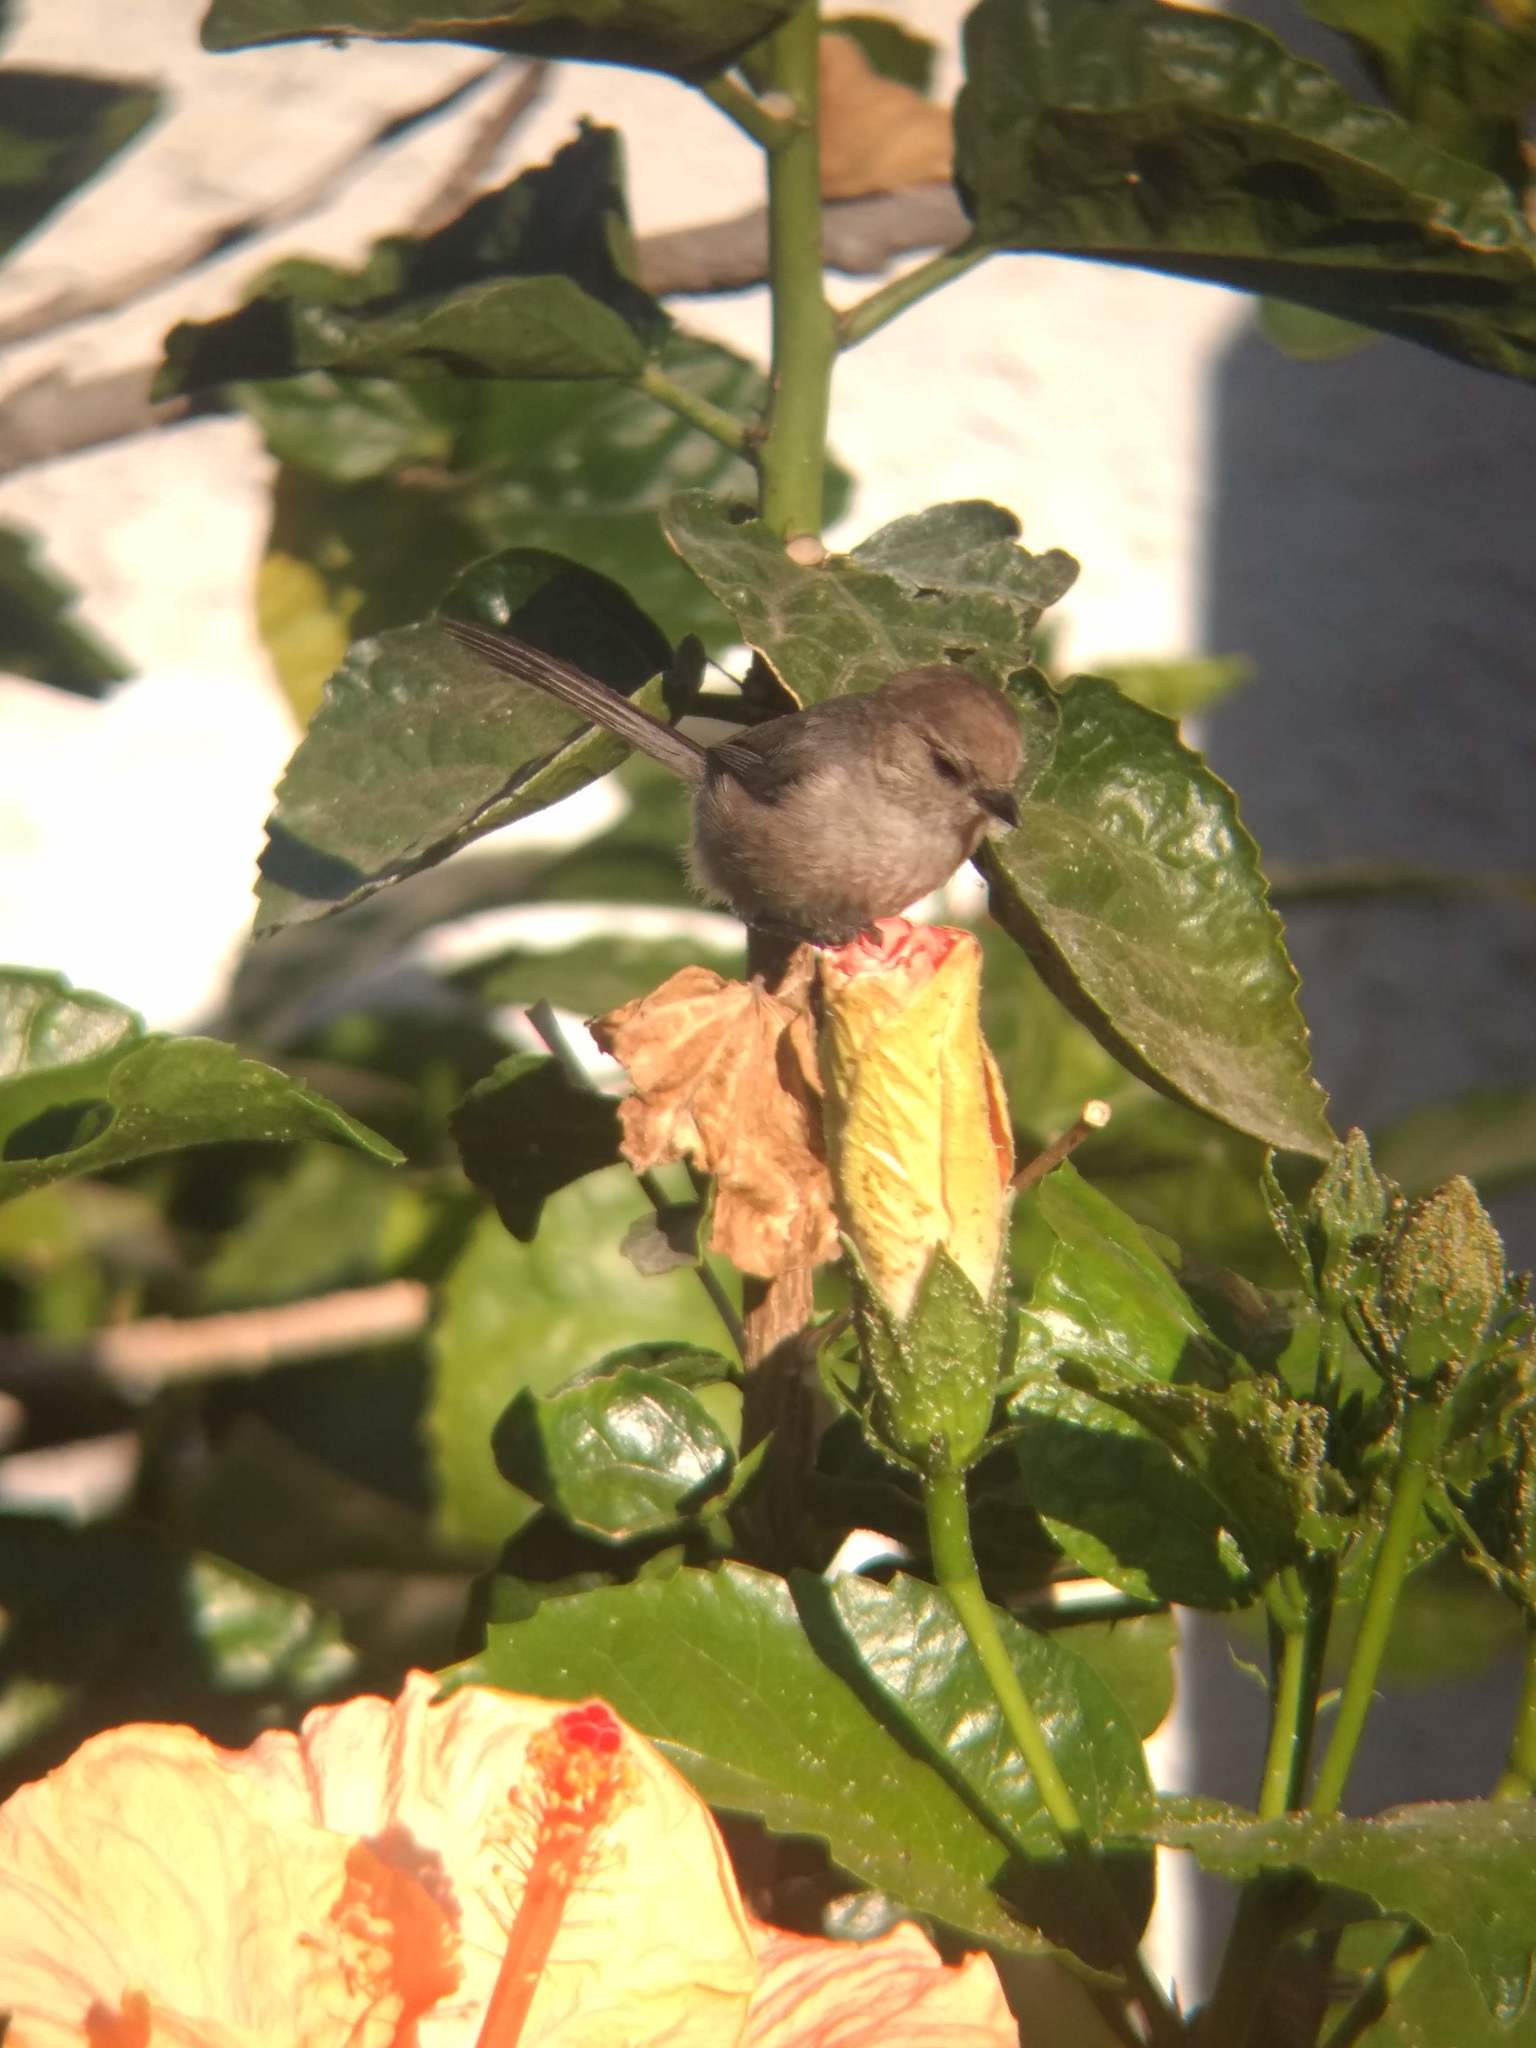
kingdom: Animalia
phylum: Chordata
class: Aves
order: Passeriformes
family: Aegithalidae
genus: Psaltriparus
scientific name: Psaltriparus minimus
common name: American bushtit
